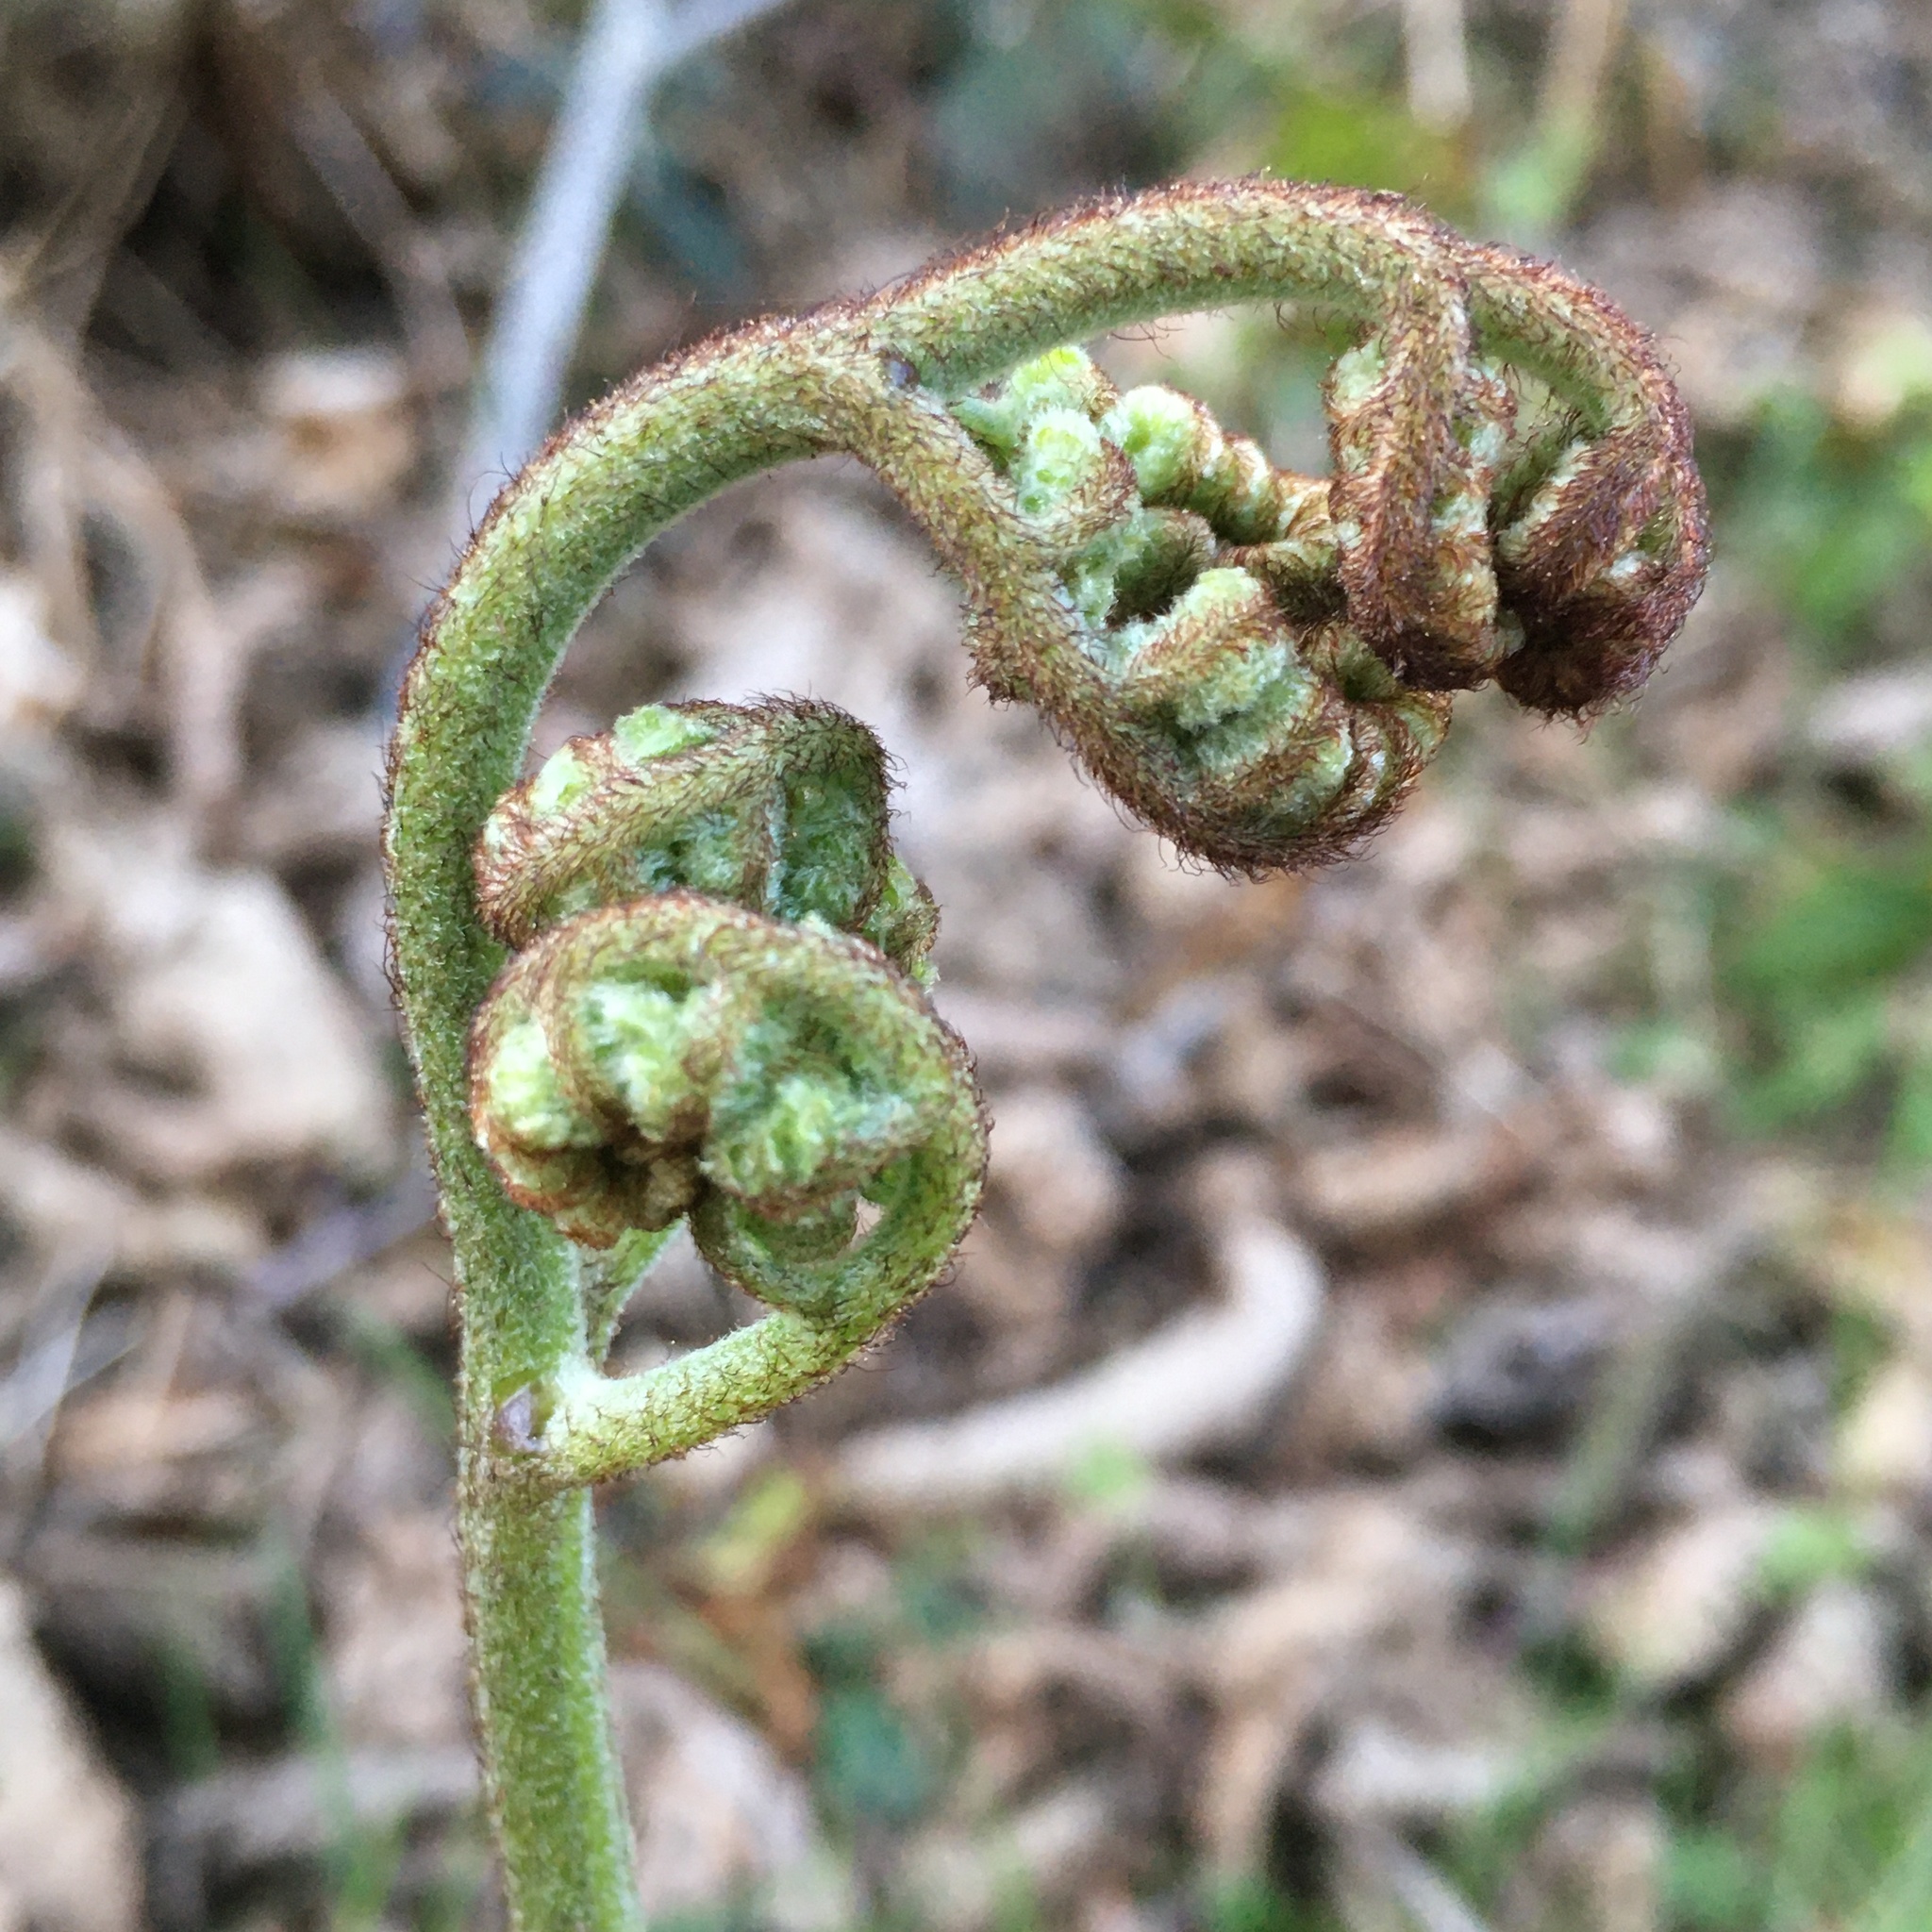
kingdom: Plantae
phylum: Tracheophyta
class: Polypodiopsida
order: Polypodiales
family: Dennstaedtiaceae
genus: Pteridium
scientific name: Pteridium aquilinum
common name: Bracken
